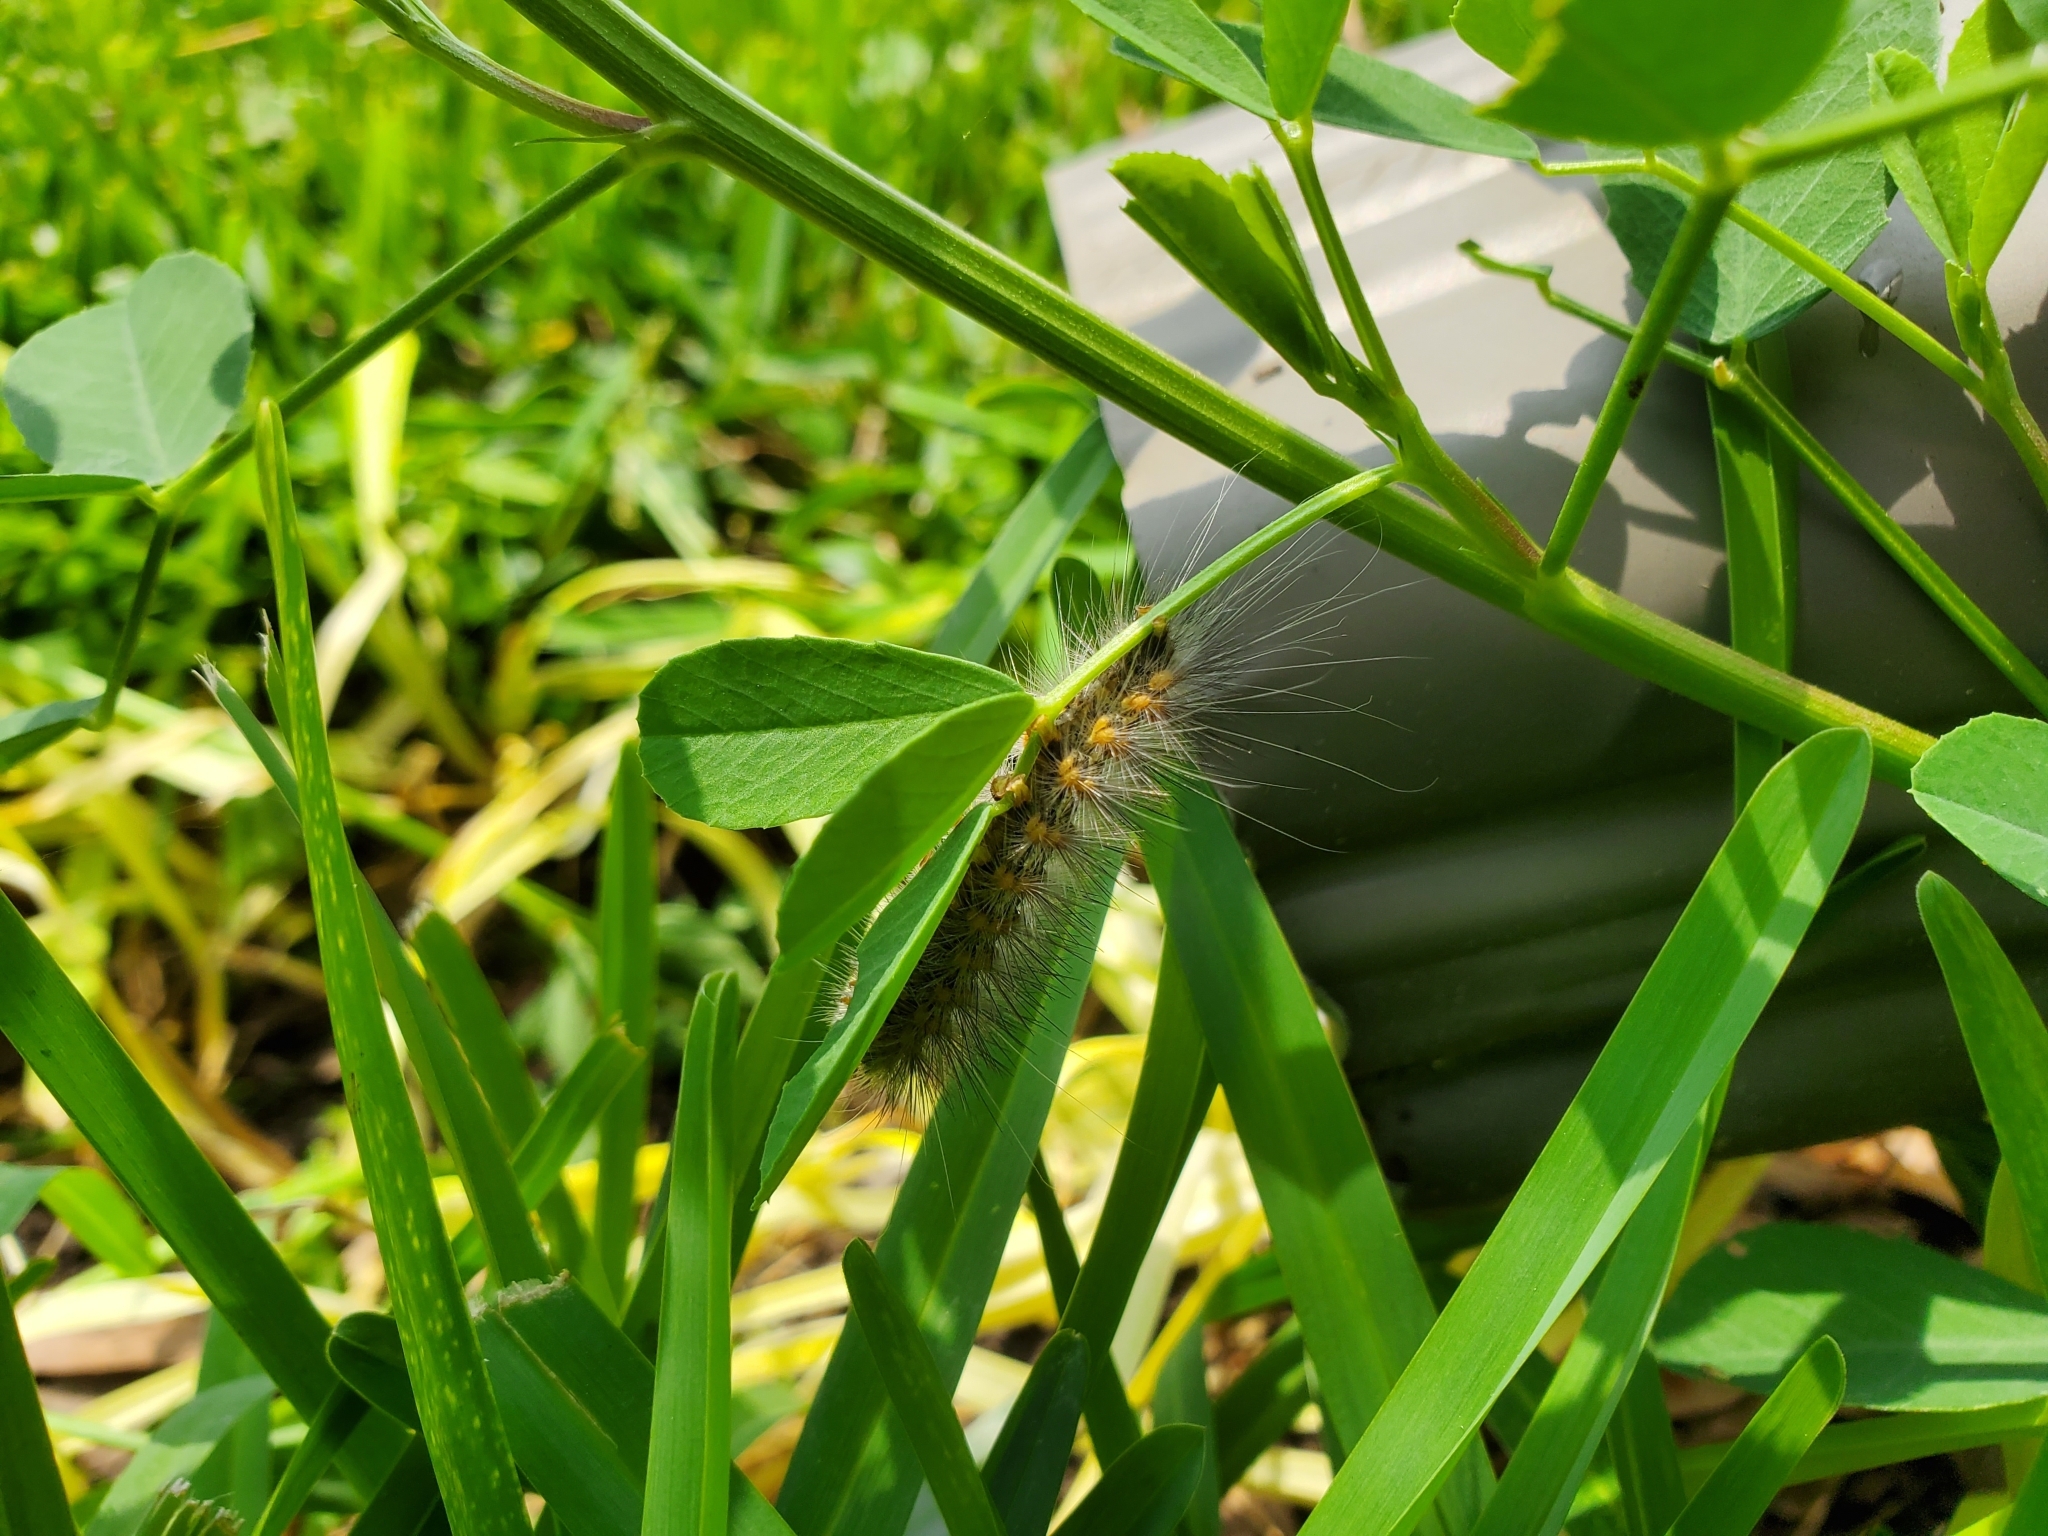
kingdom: Animalia
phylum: Arthropoda
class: Insecta
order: Lepidoptera
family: Erebidae
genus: Estigmene
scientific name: Estigmene acrea
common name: Salt marsh moth
